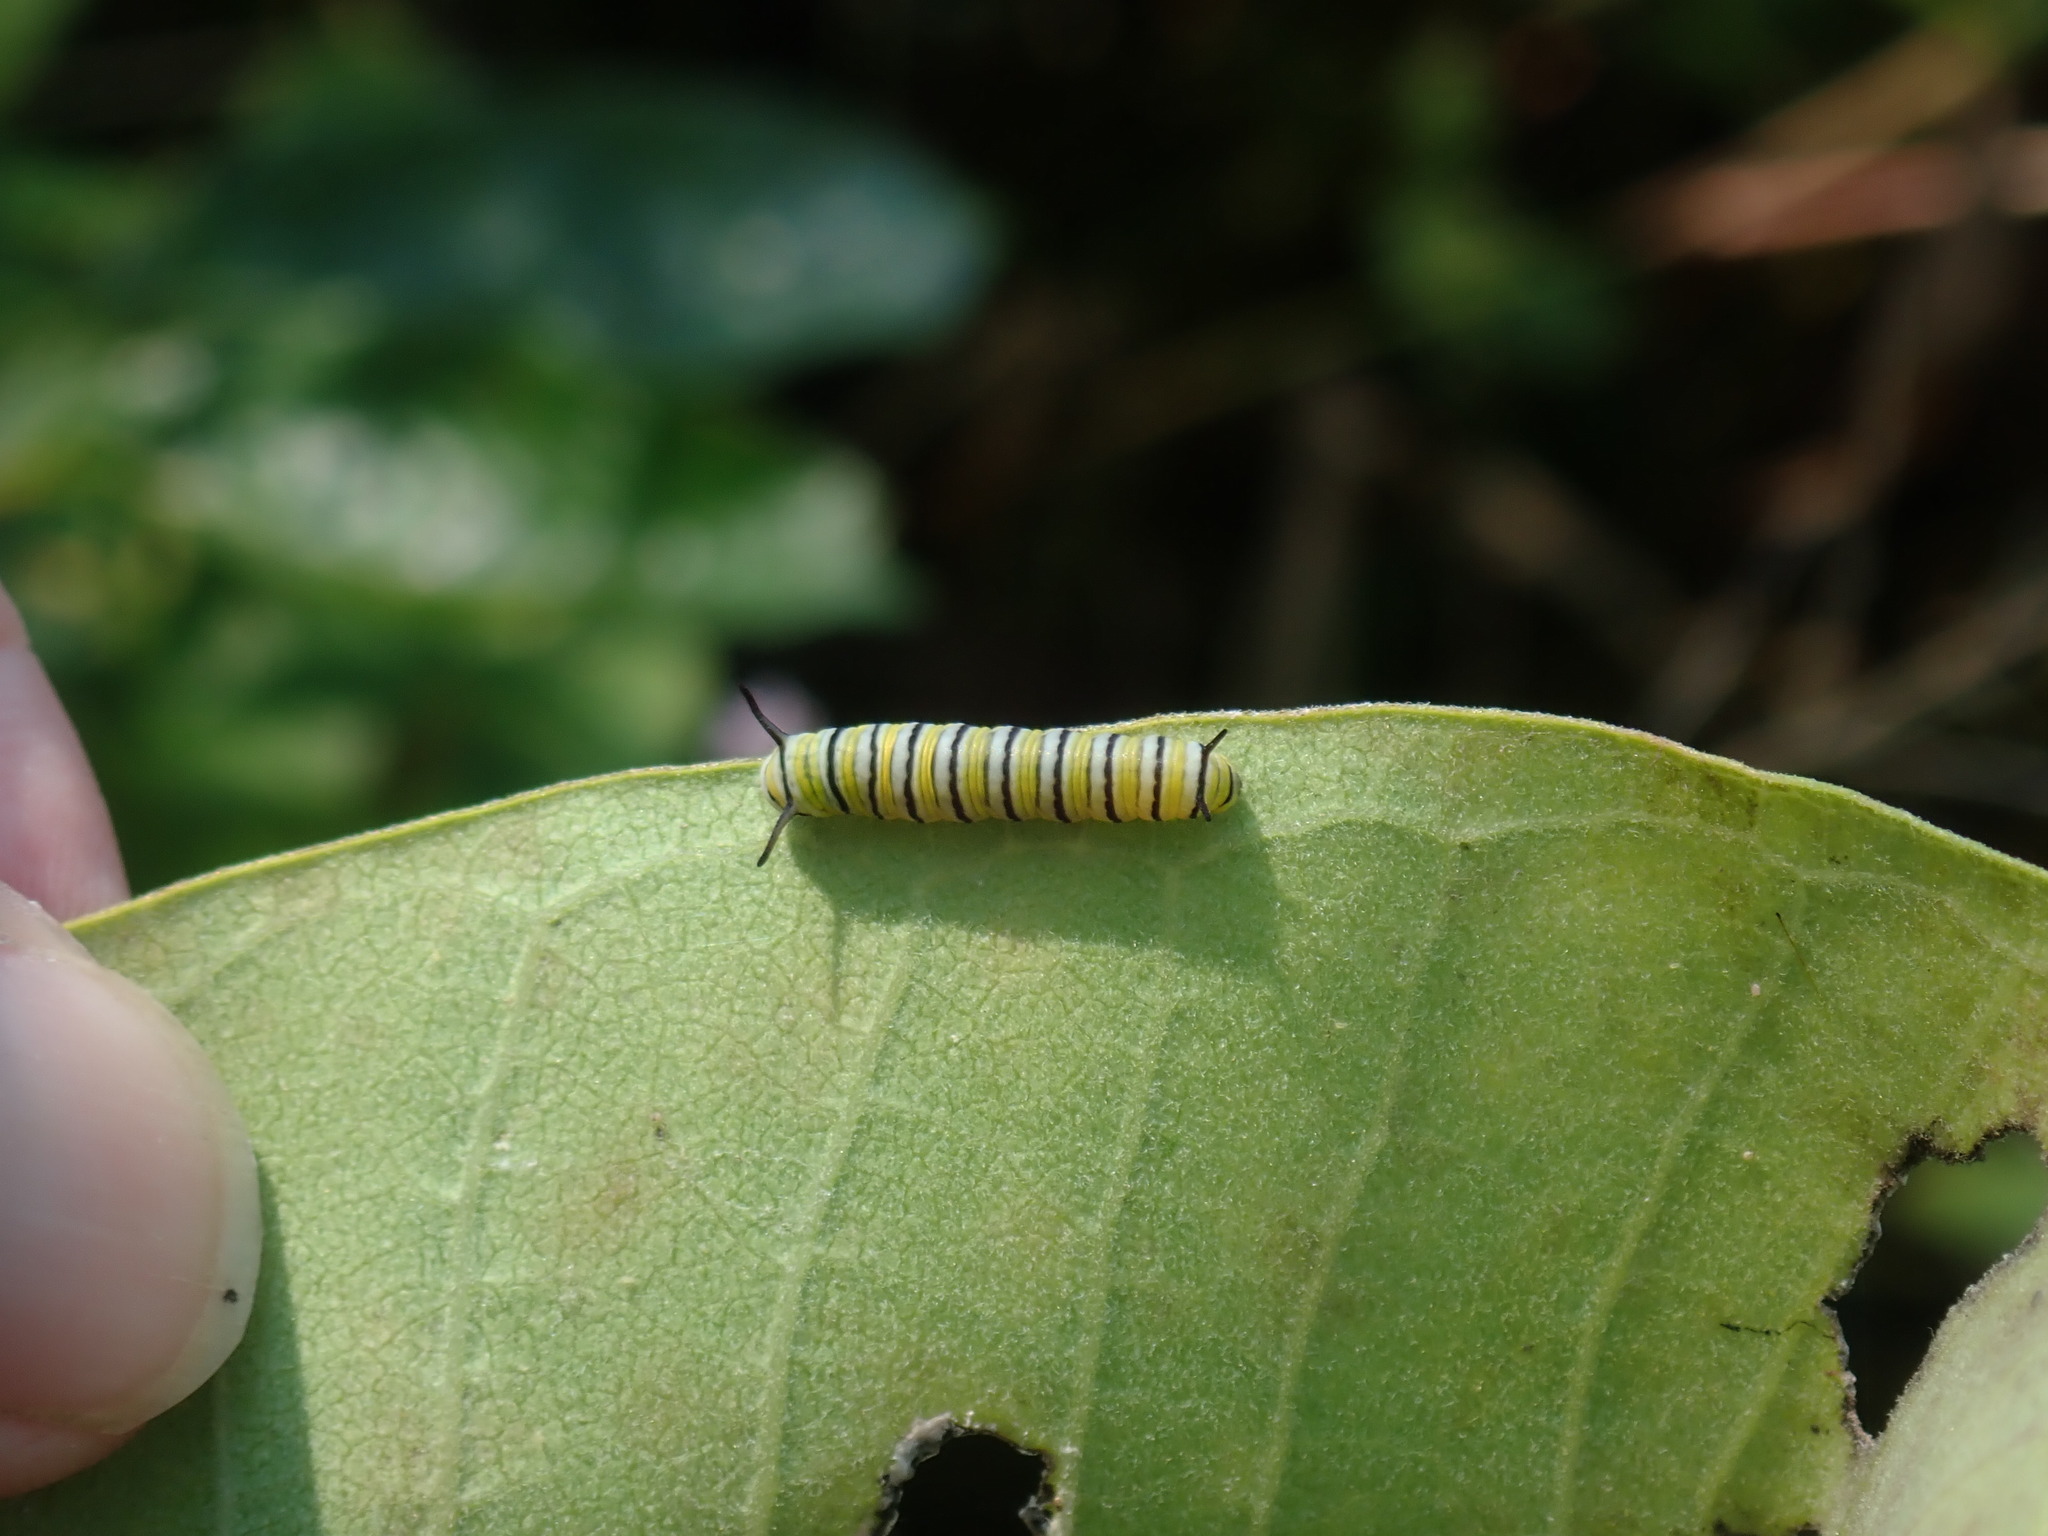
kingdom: Animalia
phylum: Arthropoda
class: Insecta
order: Lepidoptera
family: Nymphalidae
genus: Danaus
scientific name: Danaus plexippus
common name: Monarch
